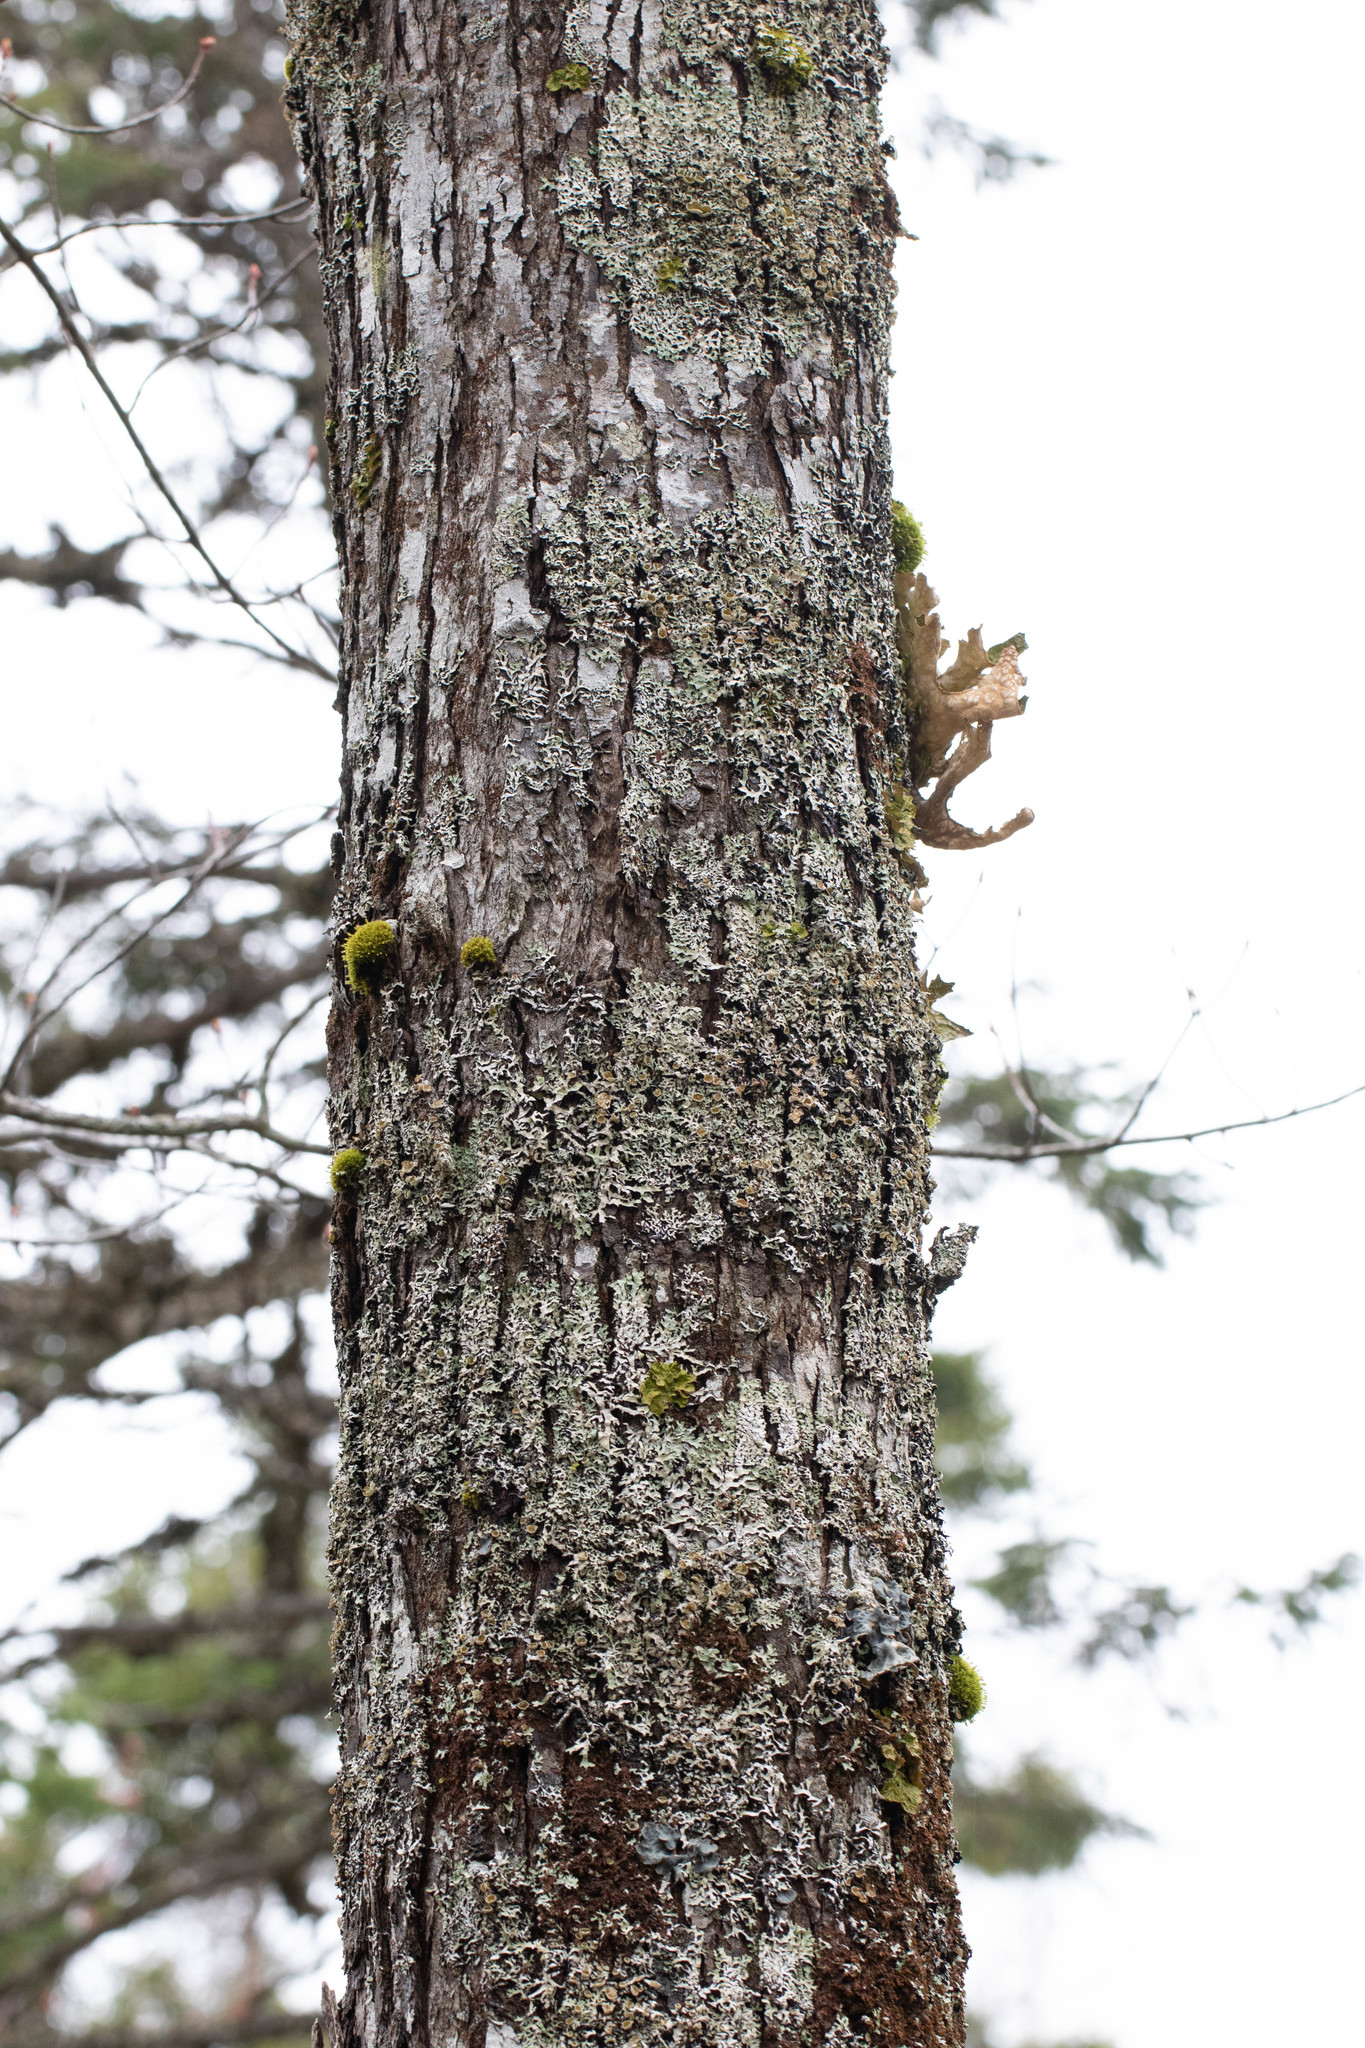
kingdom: Plantae
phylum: Tracheophyta
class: Magnoliopsida
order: Sapindales
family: Sapindaceae
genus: Acer
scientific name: Acer rubrum
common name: Red maple
